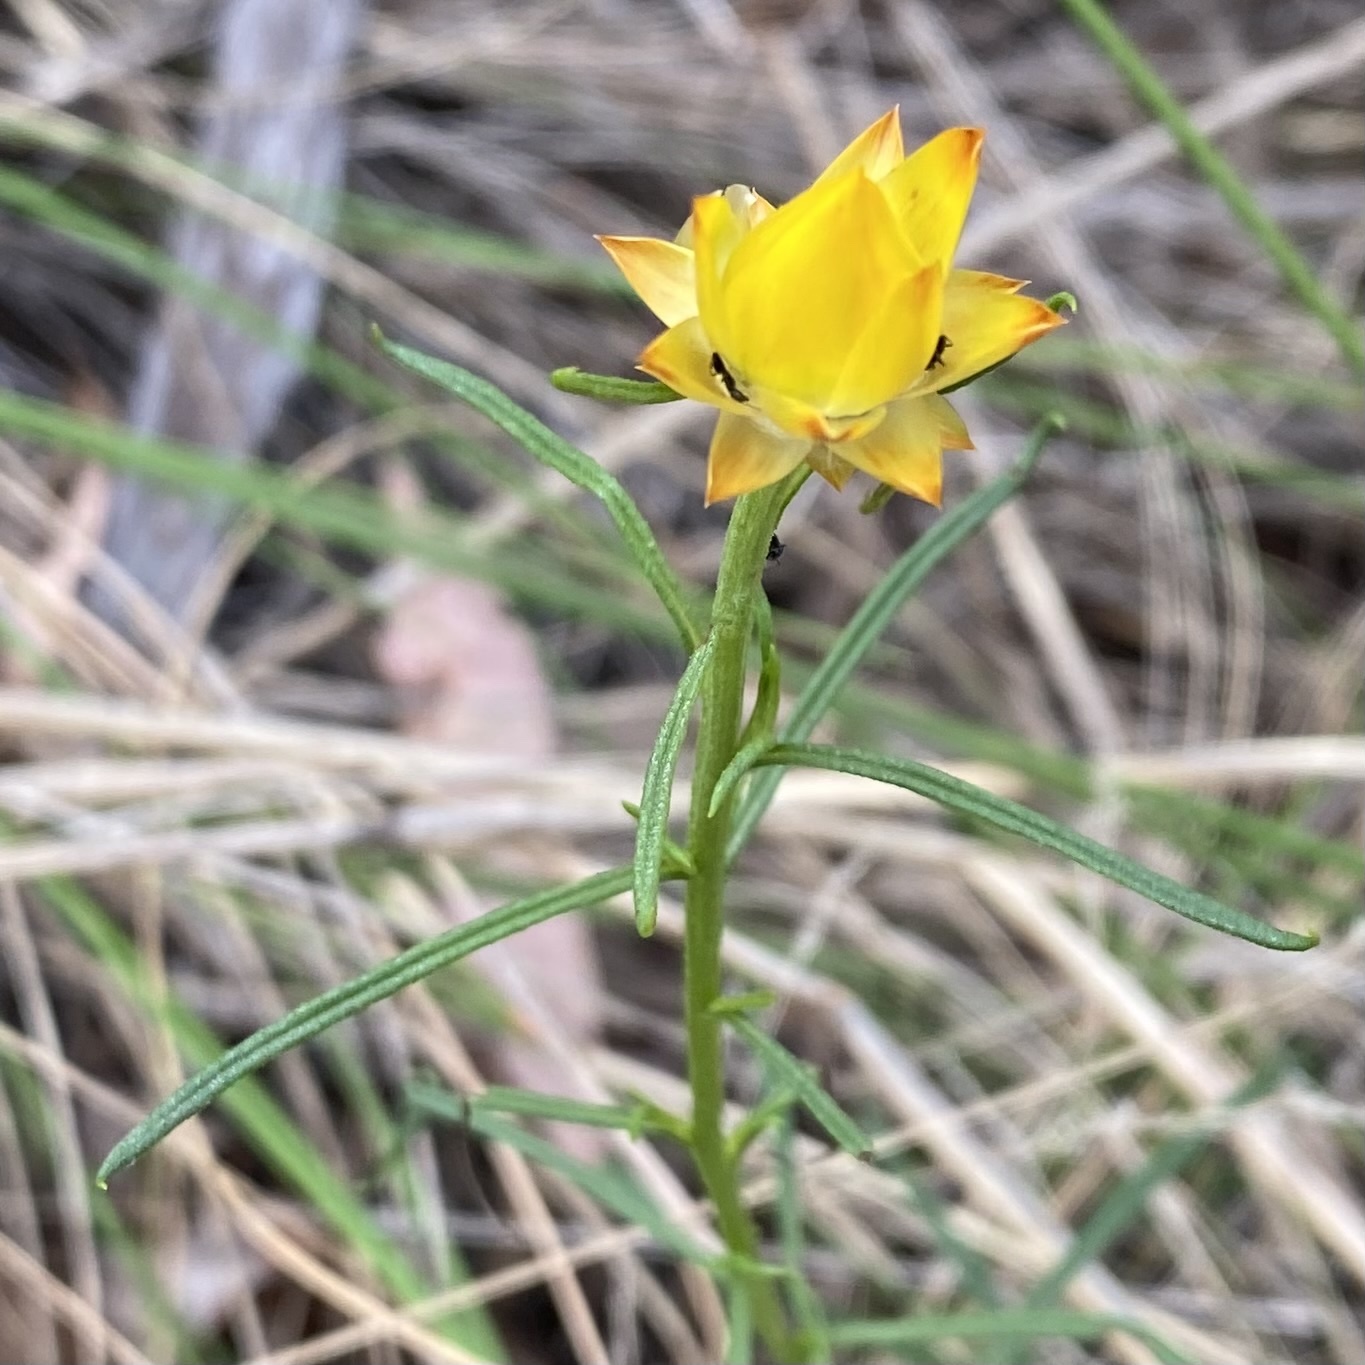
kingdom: Plantae
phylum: Tracheophyta
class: Magnoliopsida
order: Asterales
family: Asteraceae
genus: Xerochrysum
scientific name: Xerochrysum viscosum
